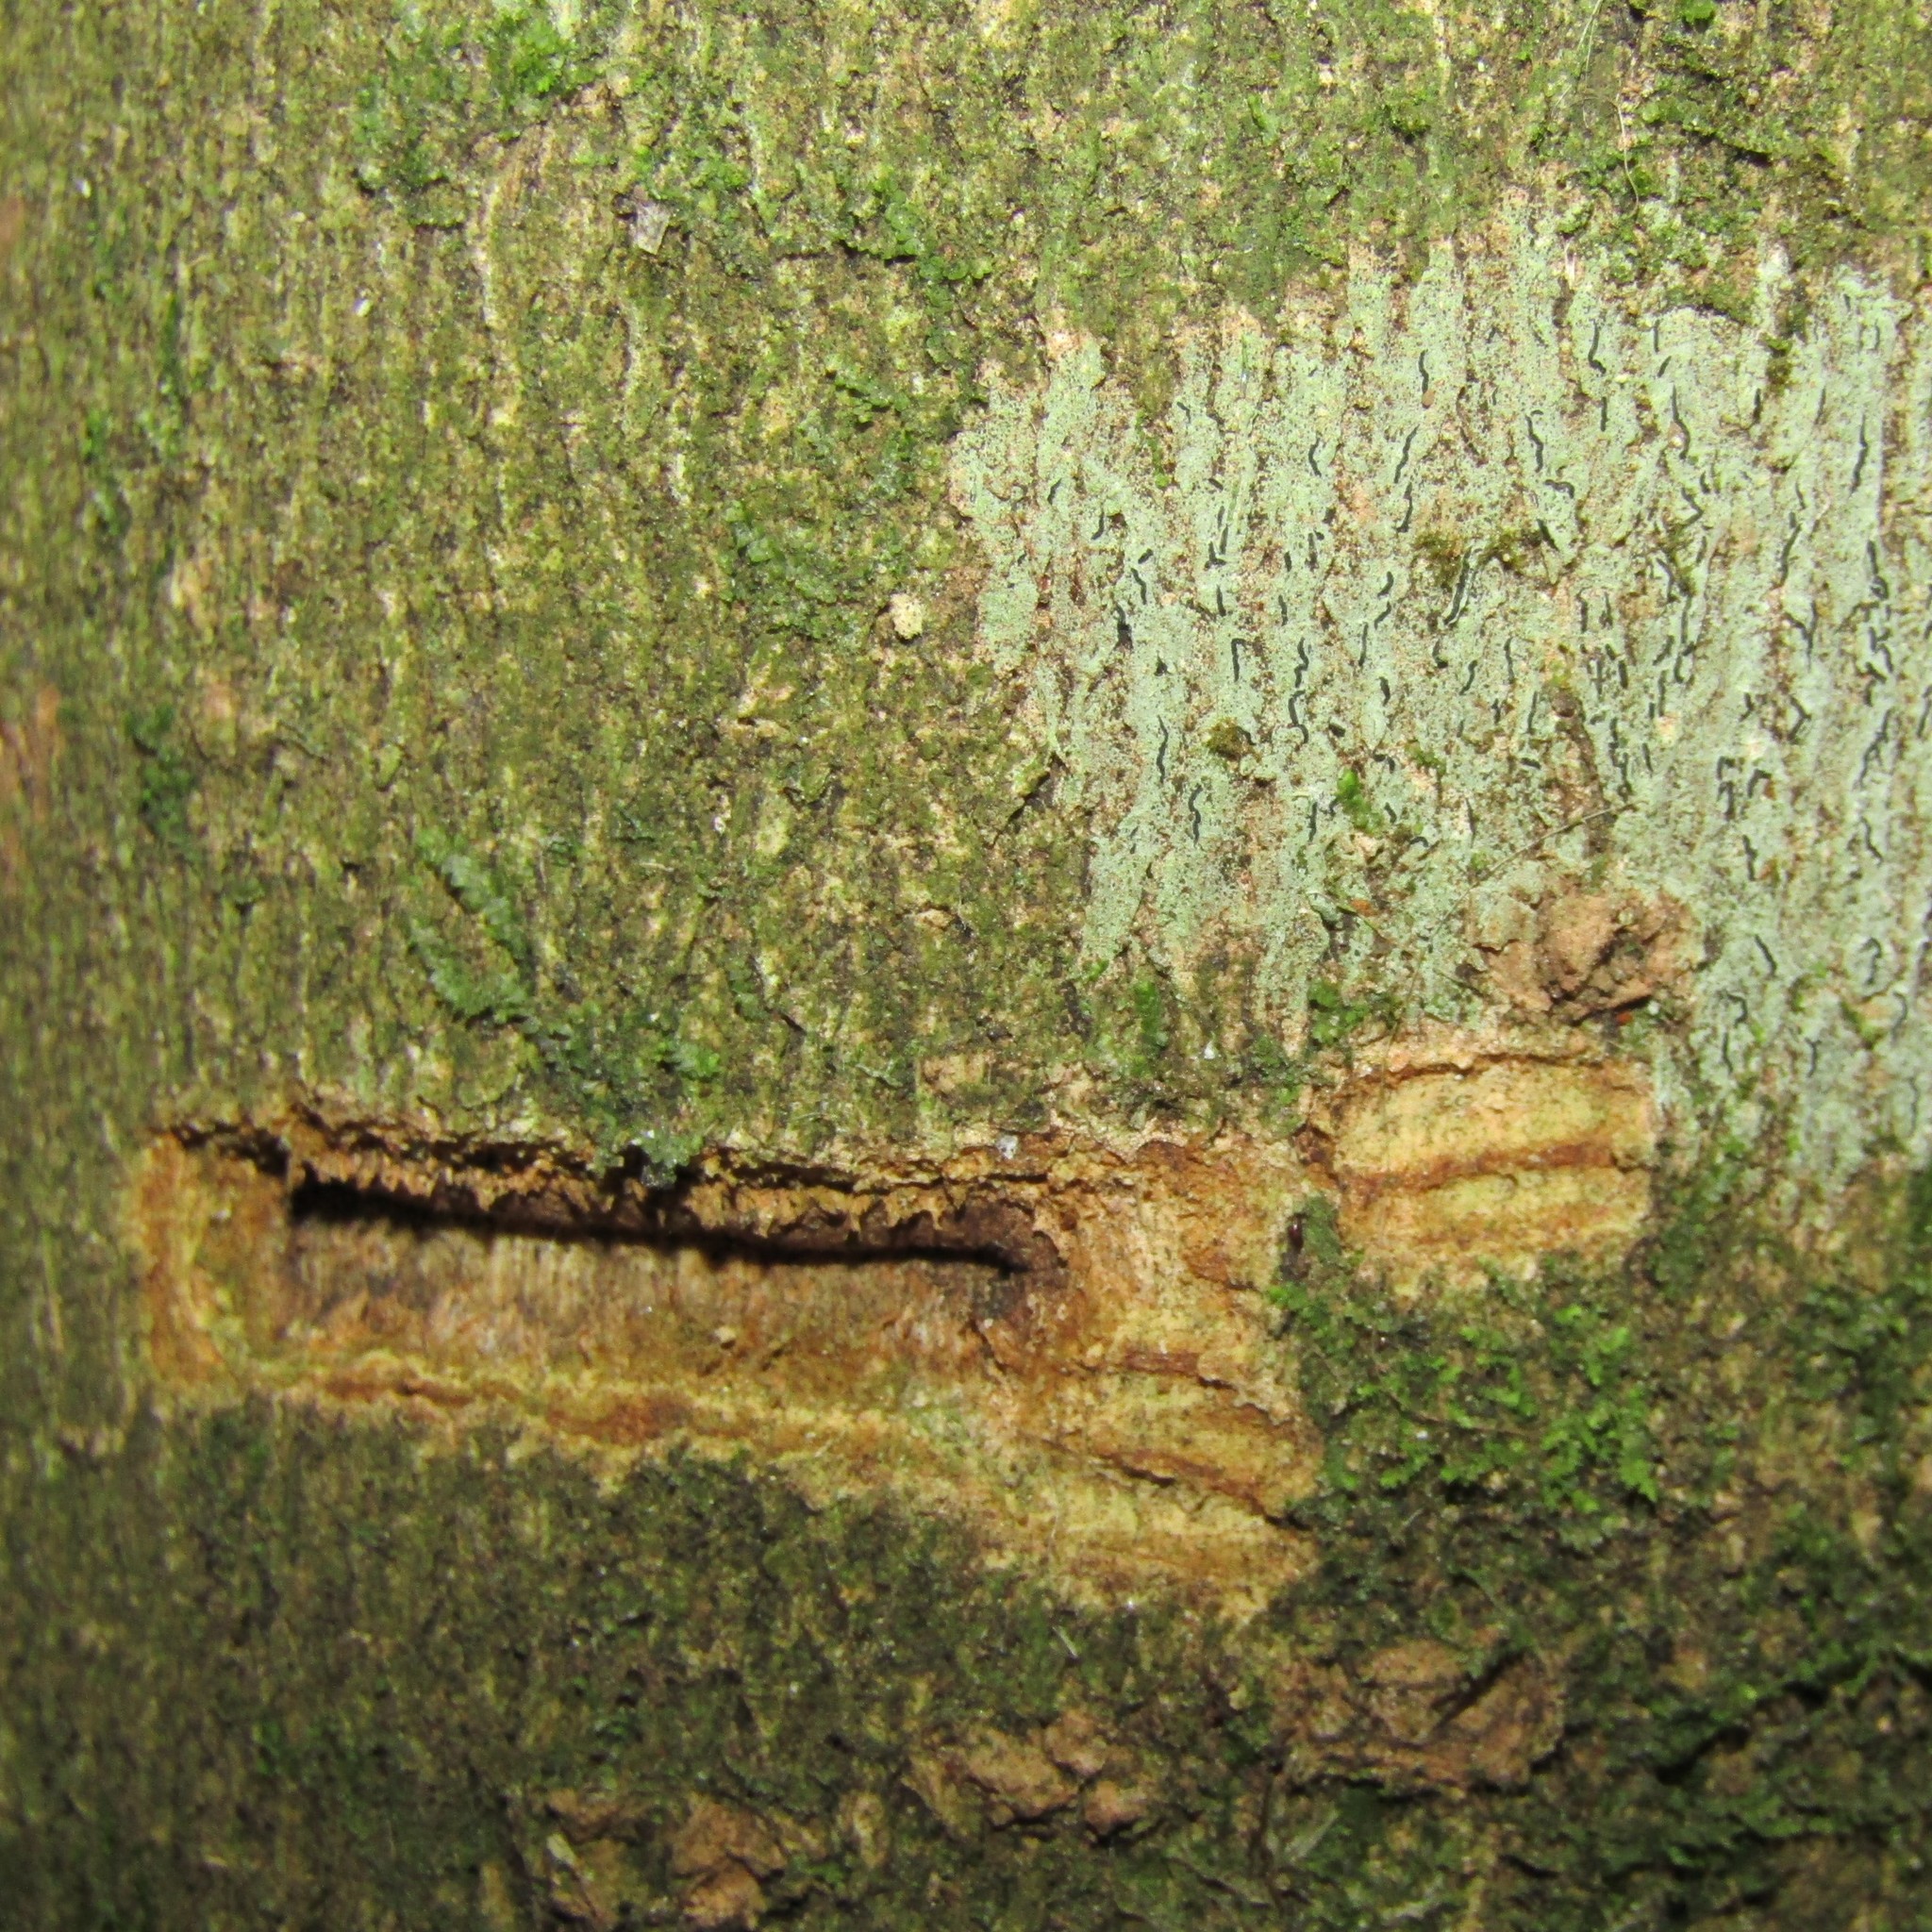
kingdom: Animalia
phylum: Chordata
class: Mammalia
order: Diprotodontia
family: Phalangeridae
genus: Trichosurus
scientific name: Trichosurus vulpecula
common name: Common brushtail
